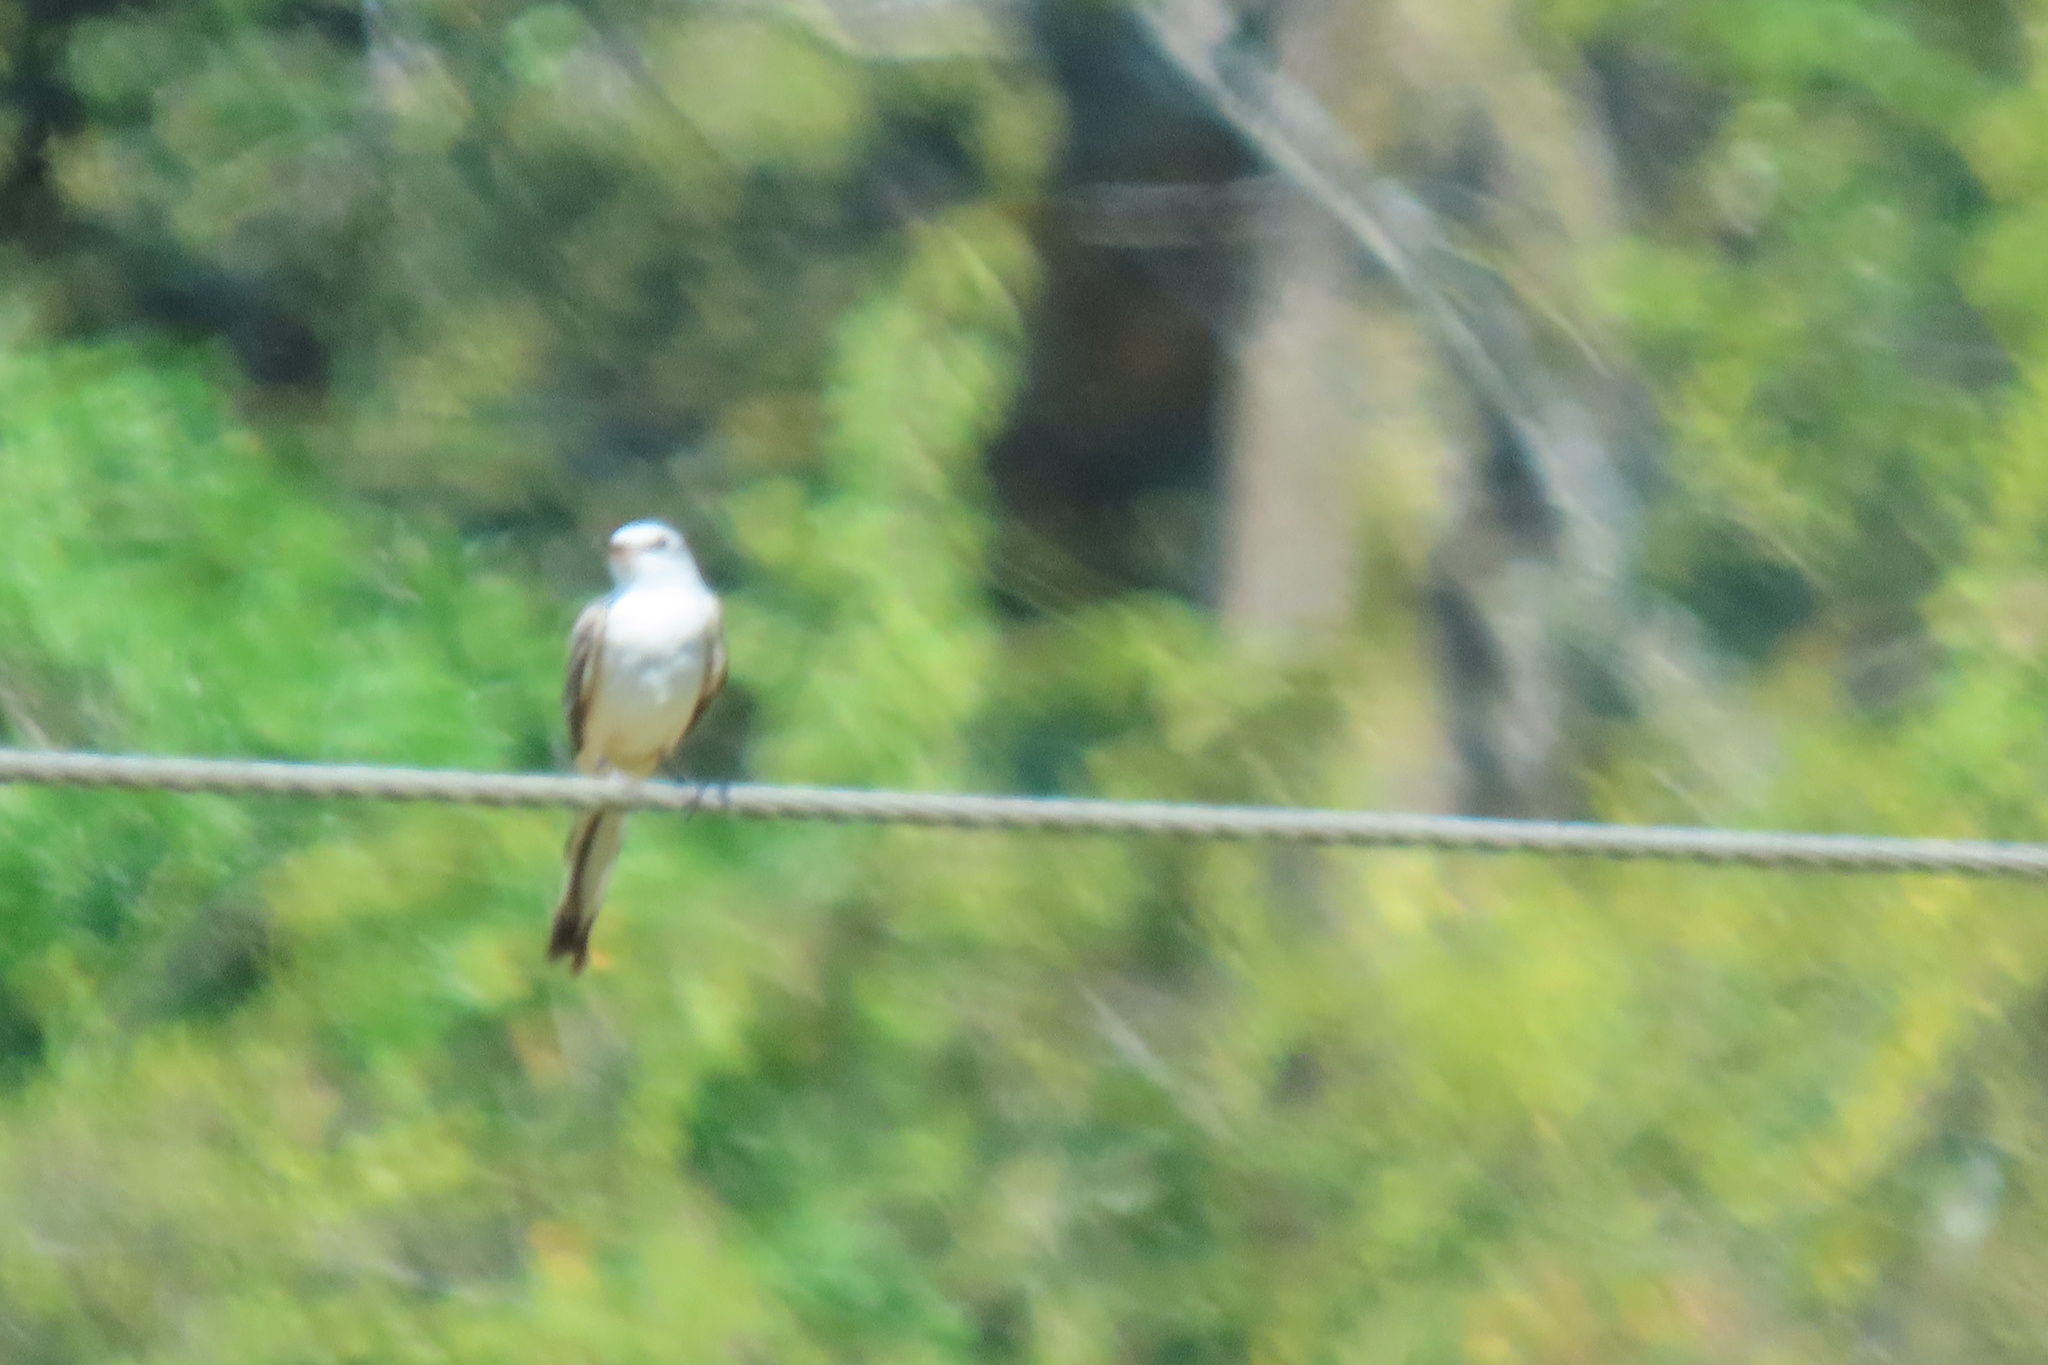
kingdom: Animalia
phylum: Chordata
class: Aves
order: Passeriformes
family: Tyrannidae
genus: Tyrannus
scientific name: Tyrannus forficatus
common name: Scissor-tailed flycatcher
